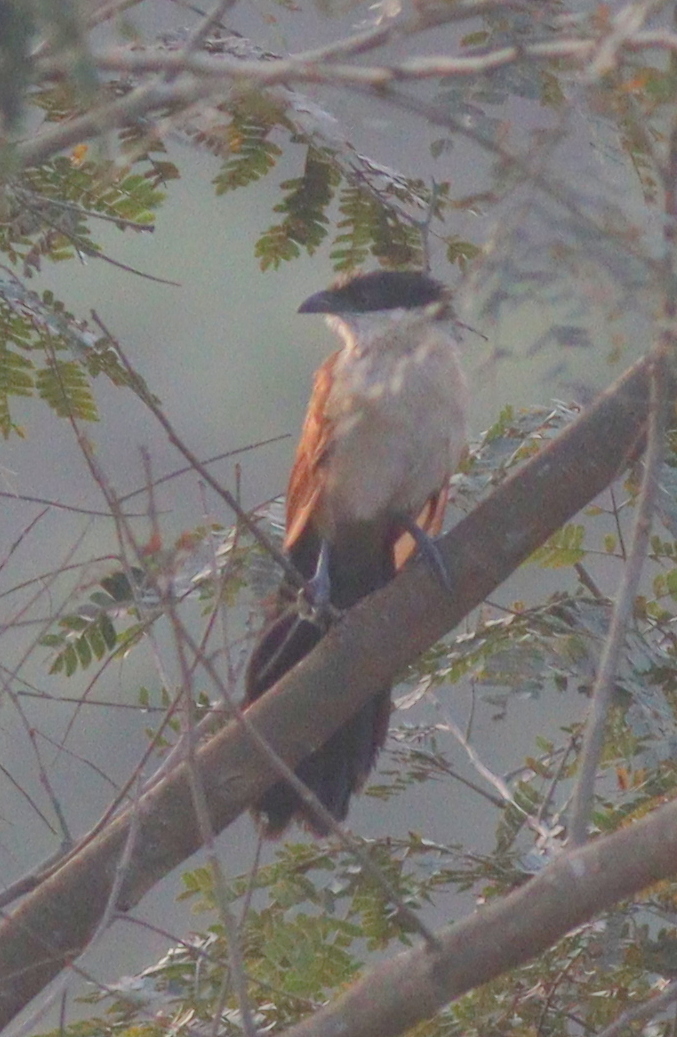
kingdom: Animalia
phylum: Chordata
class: Aves
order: Cuculiformes
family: Cuculidae
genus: Centropus
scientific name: Centropus senegalensis
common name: Senegal coucal
